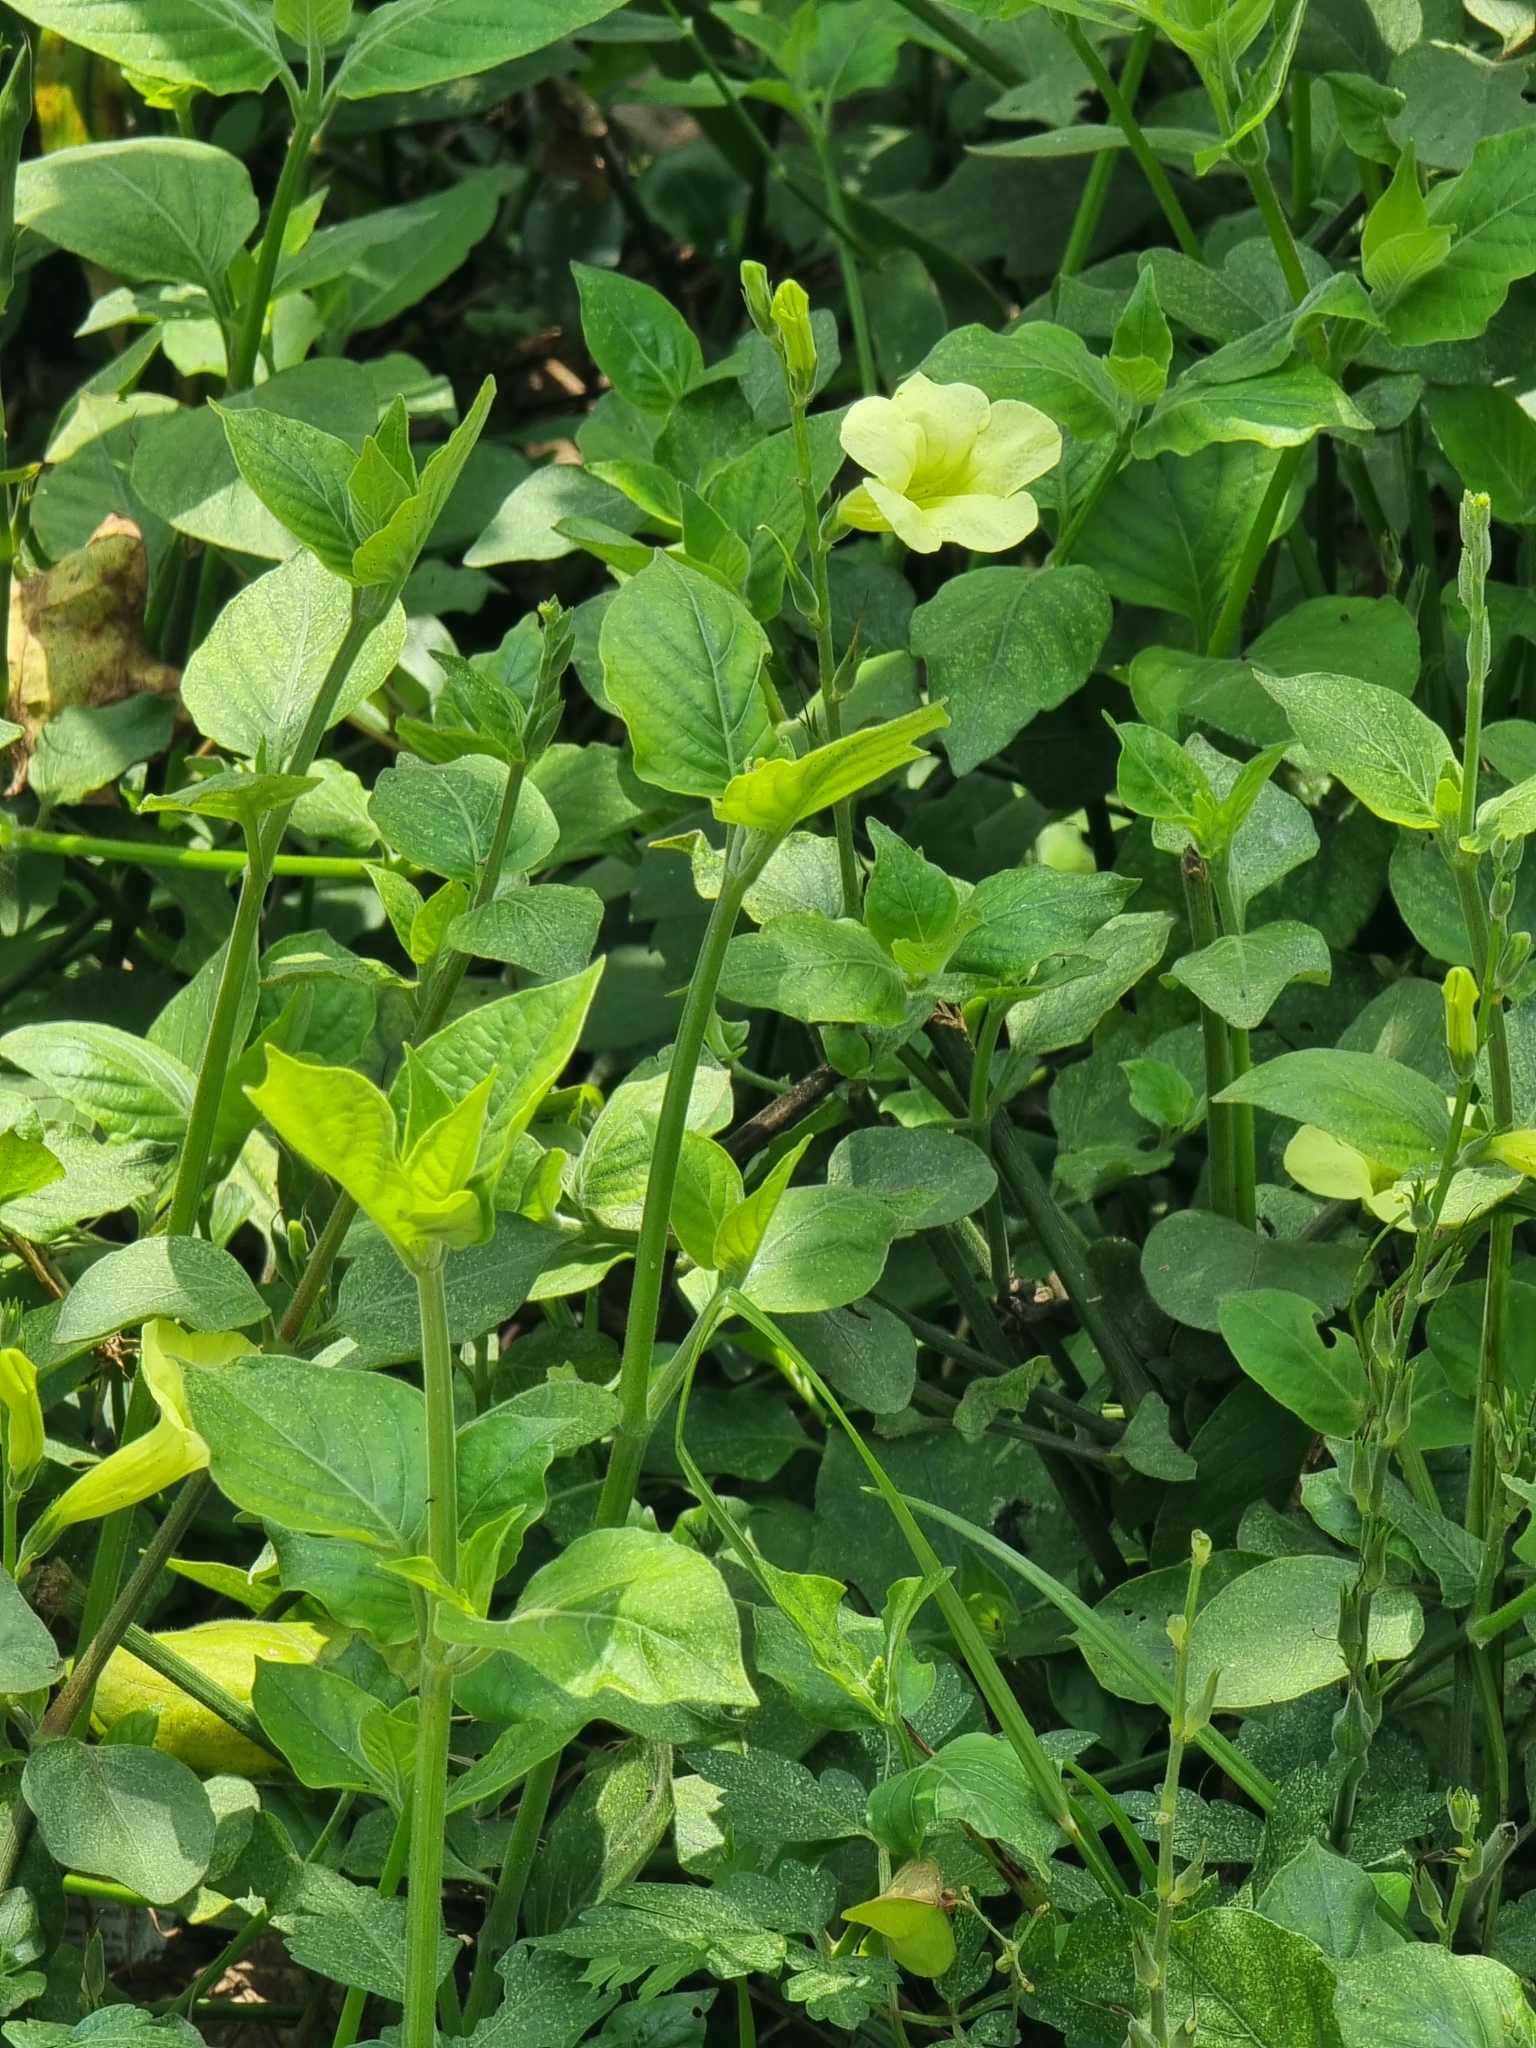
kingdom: Plantae
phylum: Tracheophyta
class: Magnoliopsida
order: Lamiales
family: Acanthaceae
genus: Asystasia
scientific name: Asystasia gangetica
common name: Chinese violet
